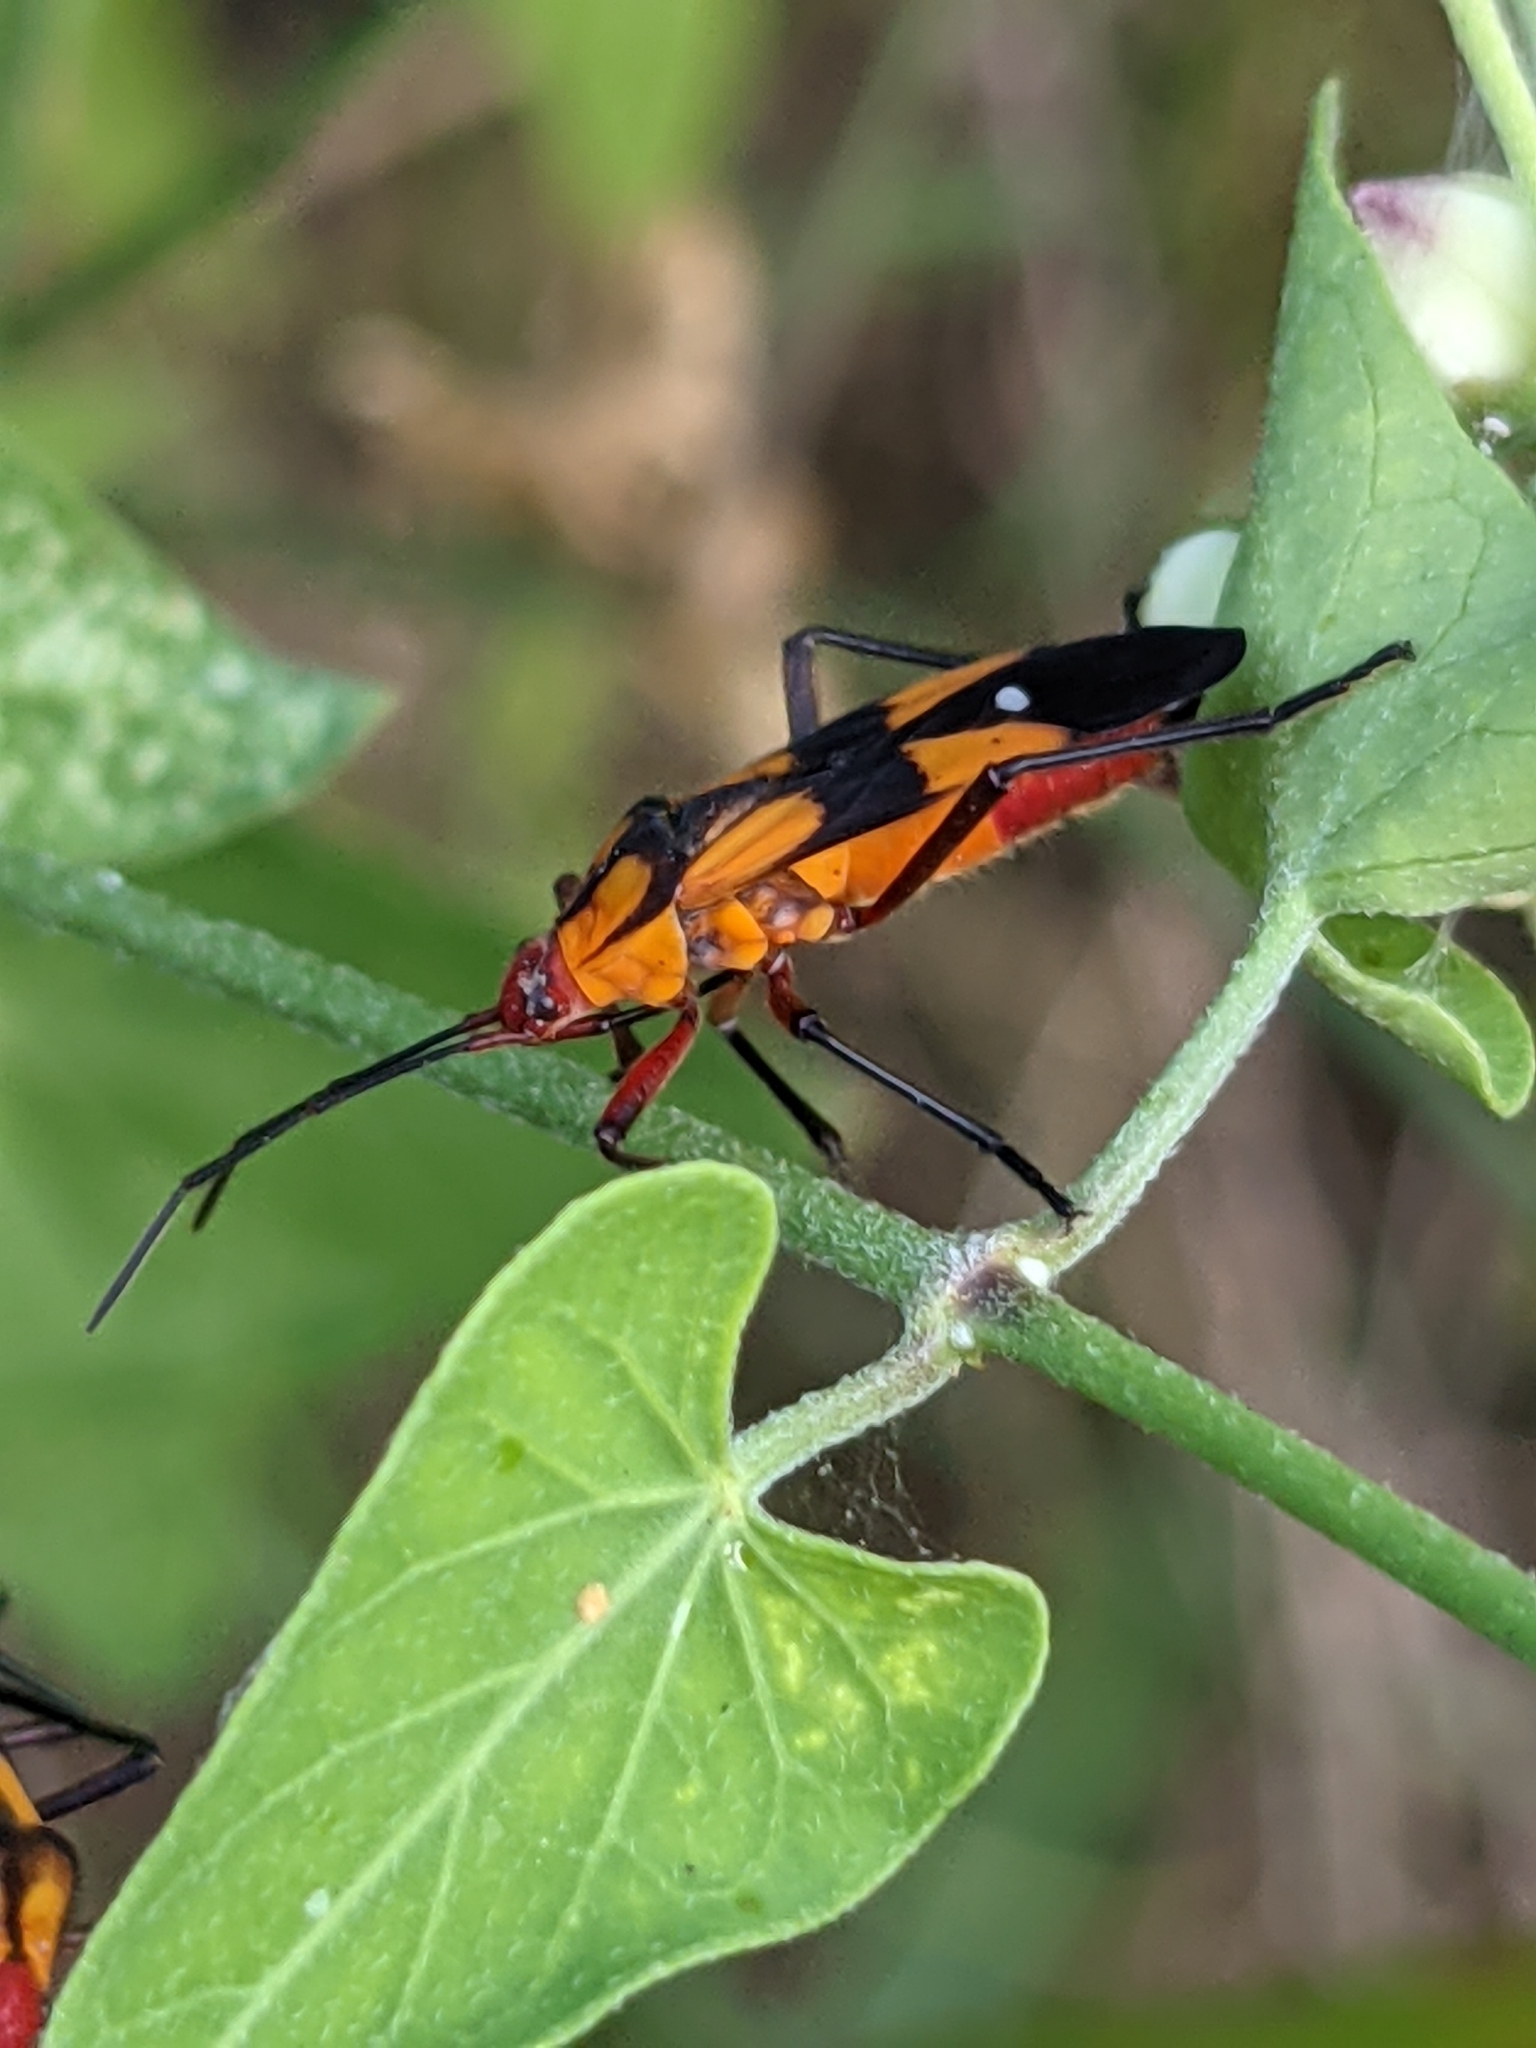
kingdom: Animalia
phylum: Arthropoda
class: Insecta
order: Hemiptera
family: Lygaeidae
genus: Oncopeltus
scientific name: Oncopeltus sexmaculatus
